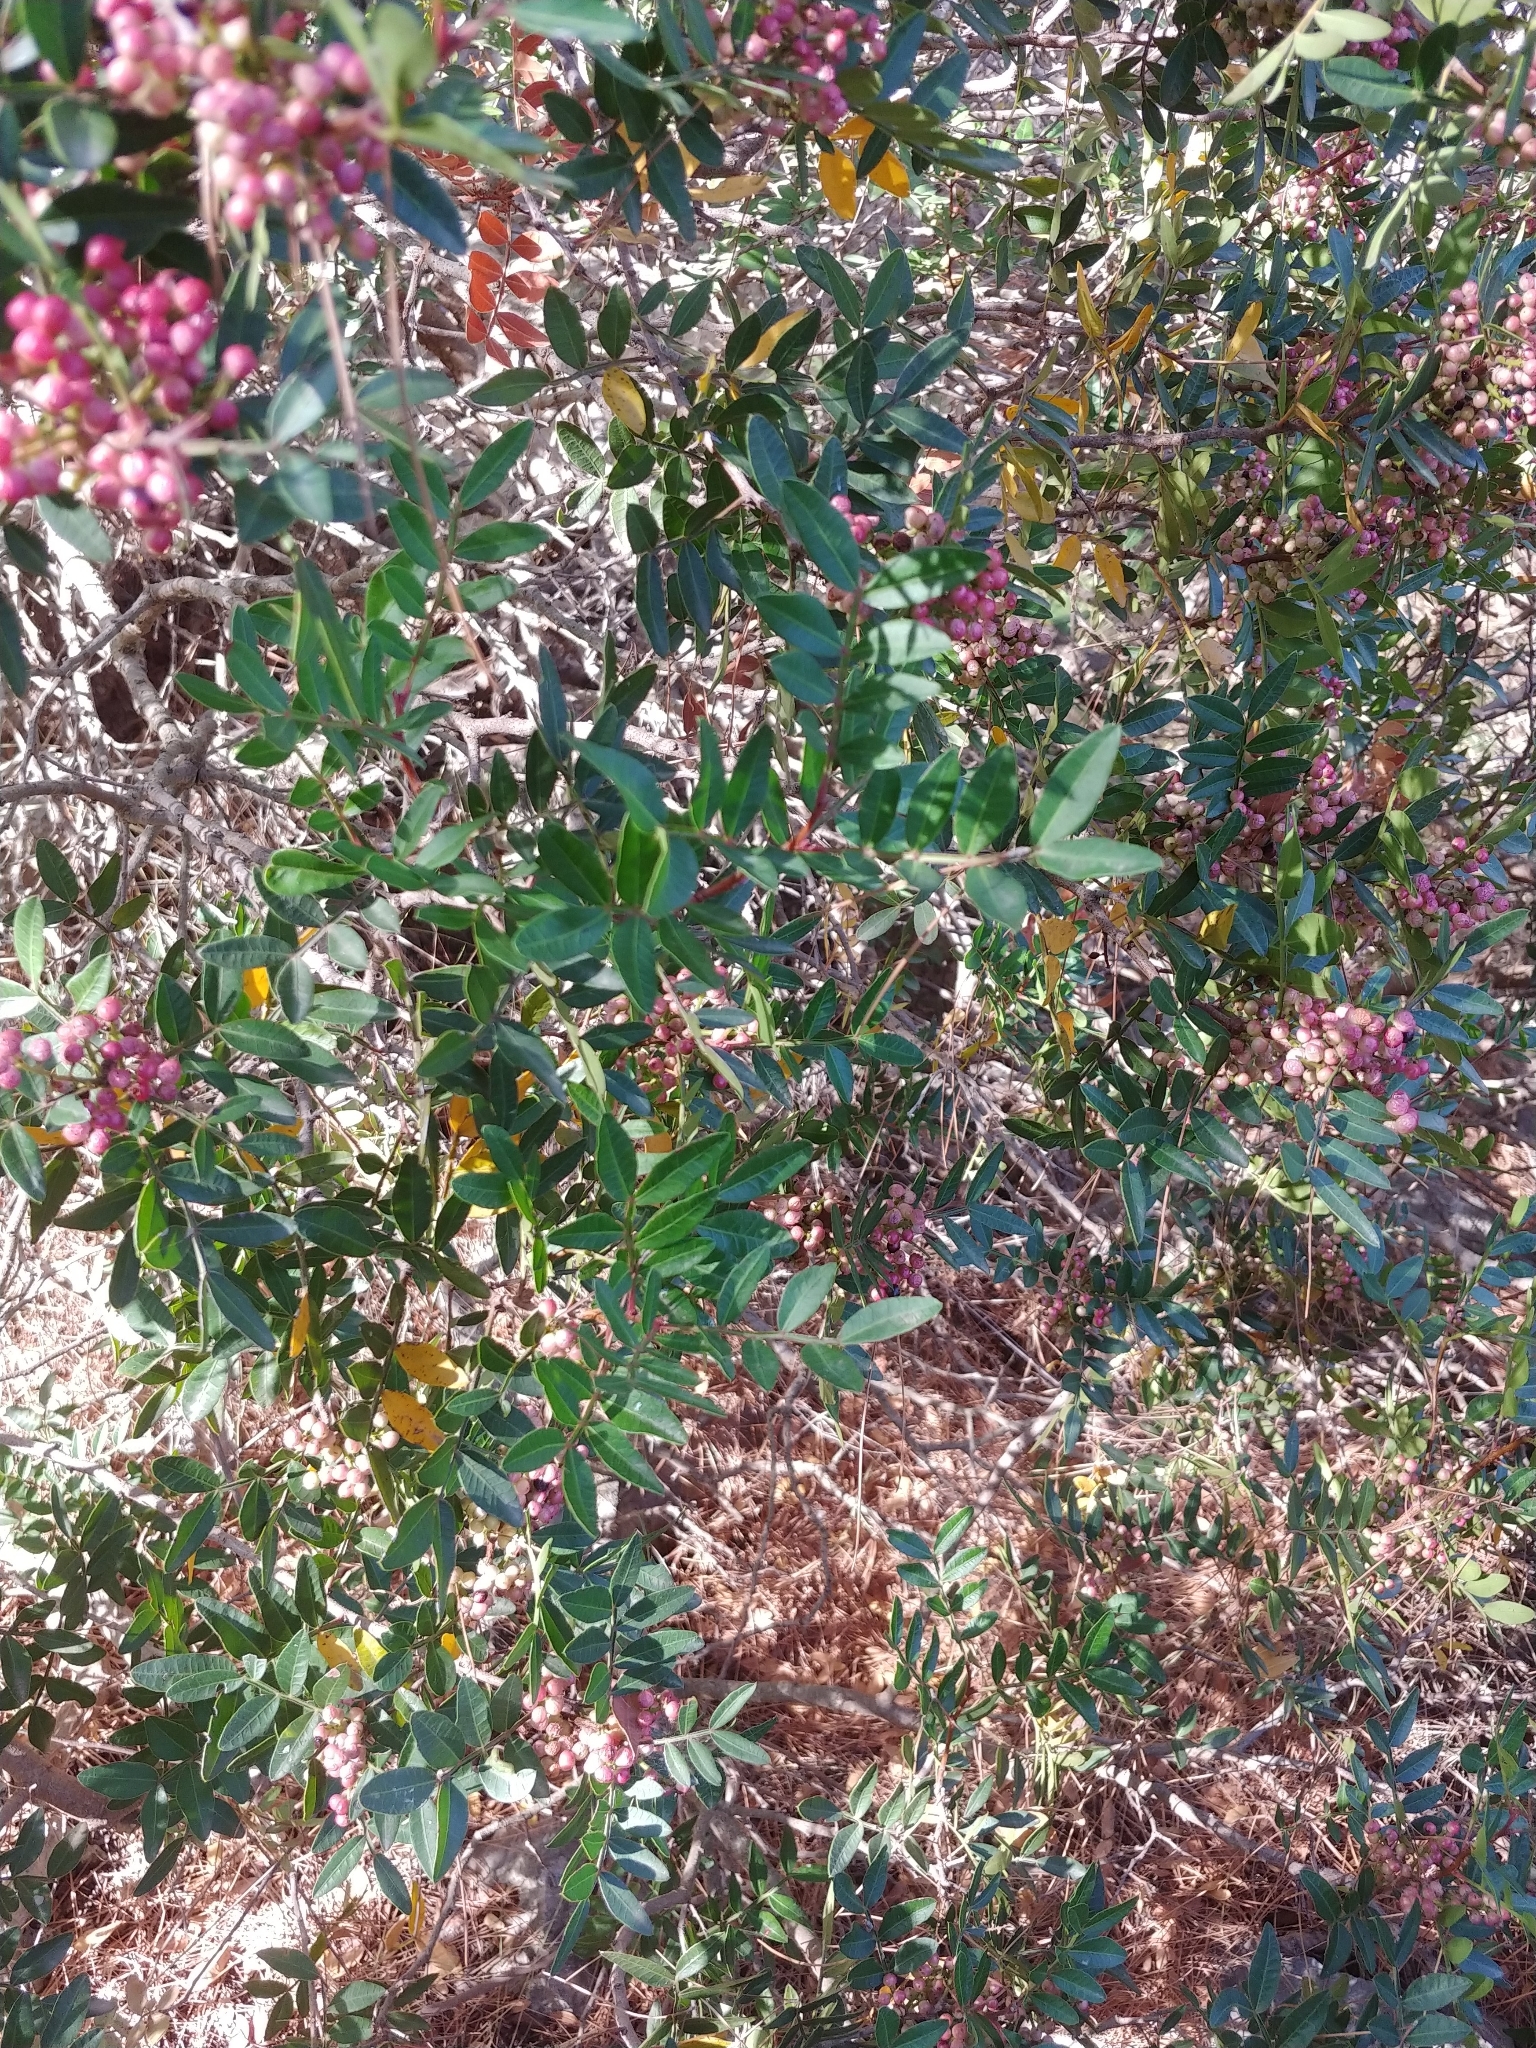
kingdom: Plantae
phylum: Tracheophyta
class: Magnoliopsida
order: Sapindales
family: Anacardiaceae
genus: Pistacia
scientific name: Pistacia lentiscus
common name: Lentisk
